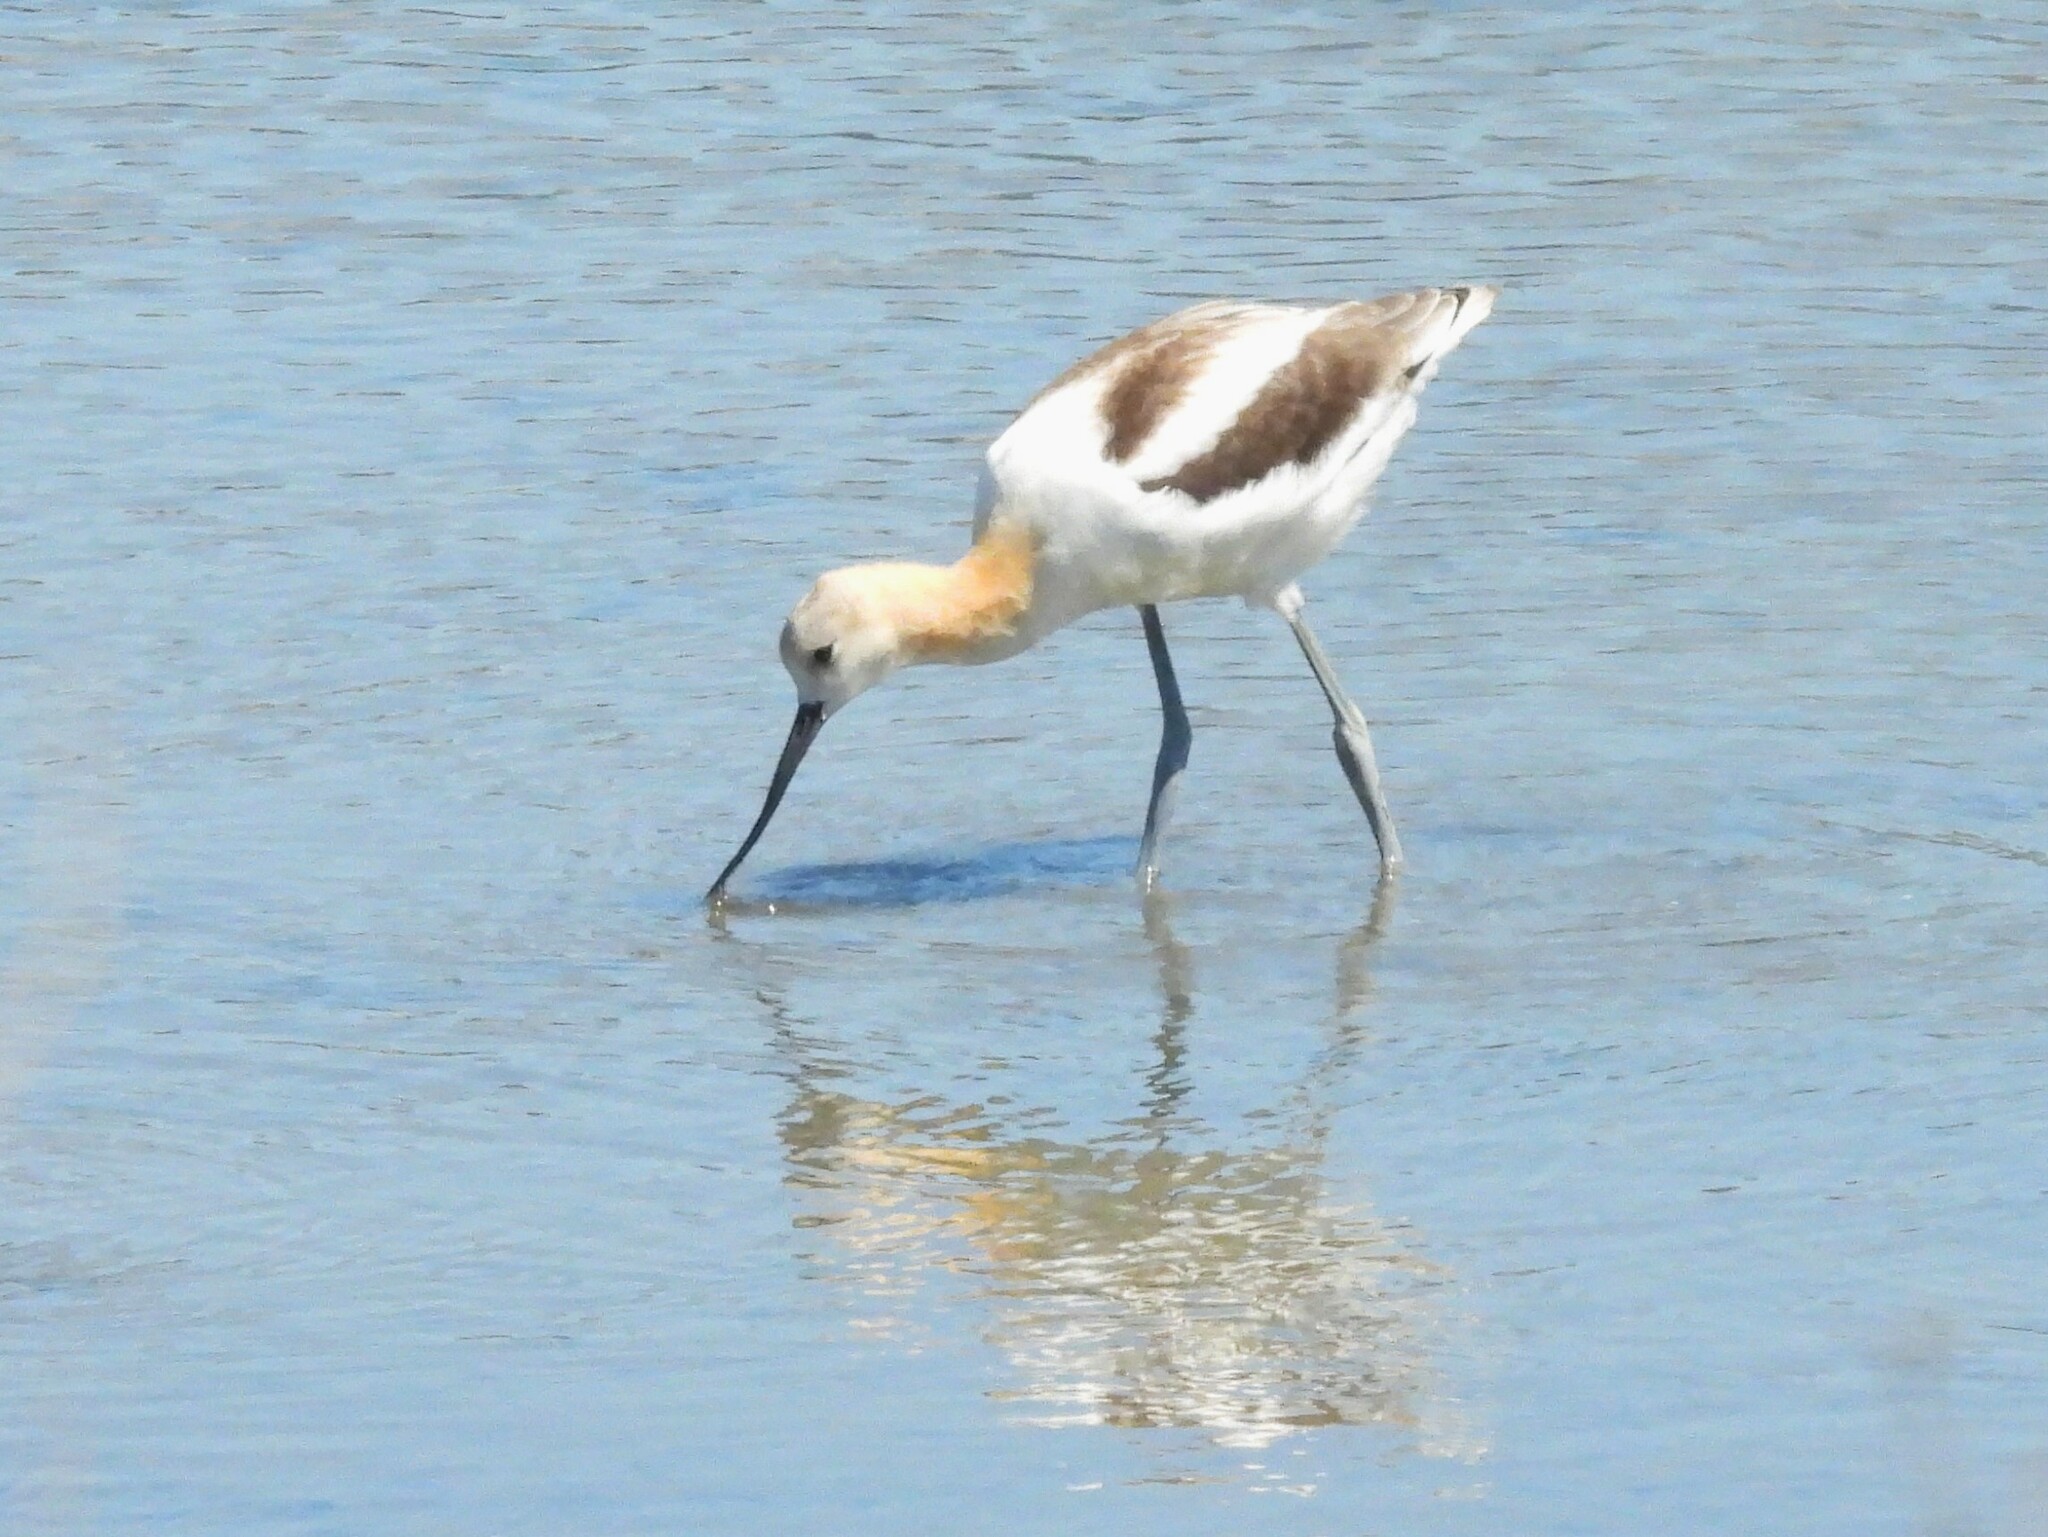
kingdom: Animalia
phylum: Chordata
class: Aves
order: Charadriiformes
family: Recurvirostridae
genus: Recurvirostra
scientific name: Recurvirostra americana
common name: American avocet
